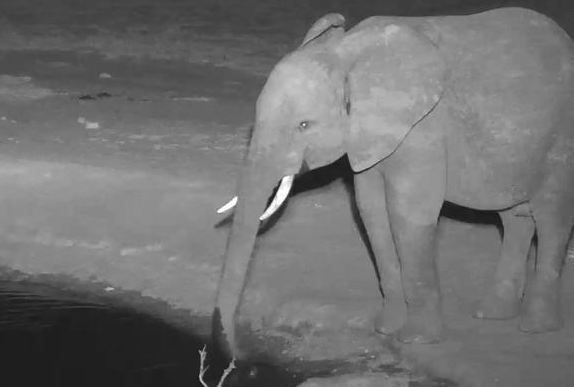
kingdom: Animalia
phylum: Chordata
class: Mammalia
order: Proboscidea
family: Elephantidae
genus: Loxodonta
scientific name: Loxodonta africana
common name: African elephant
